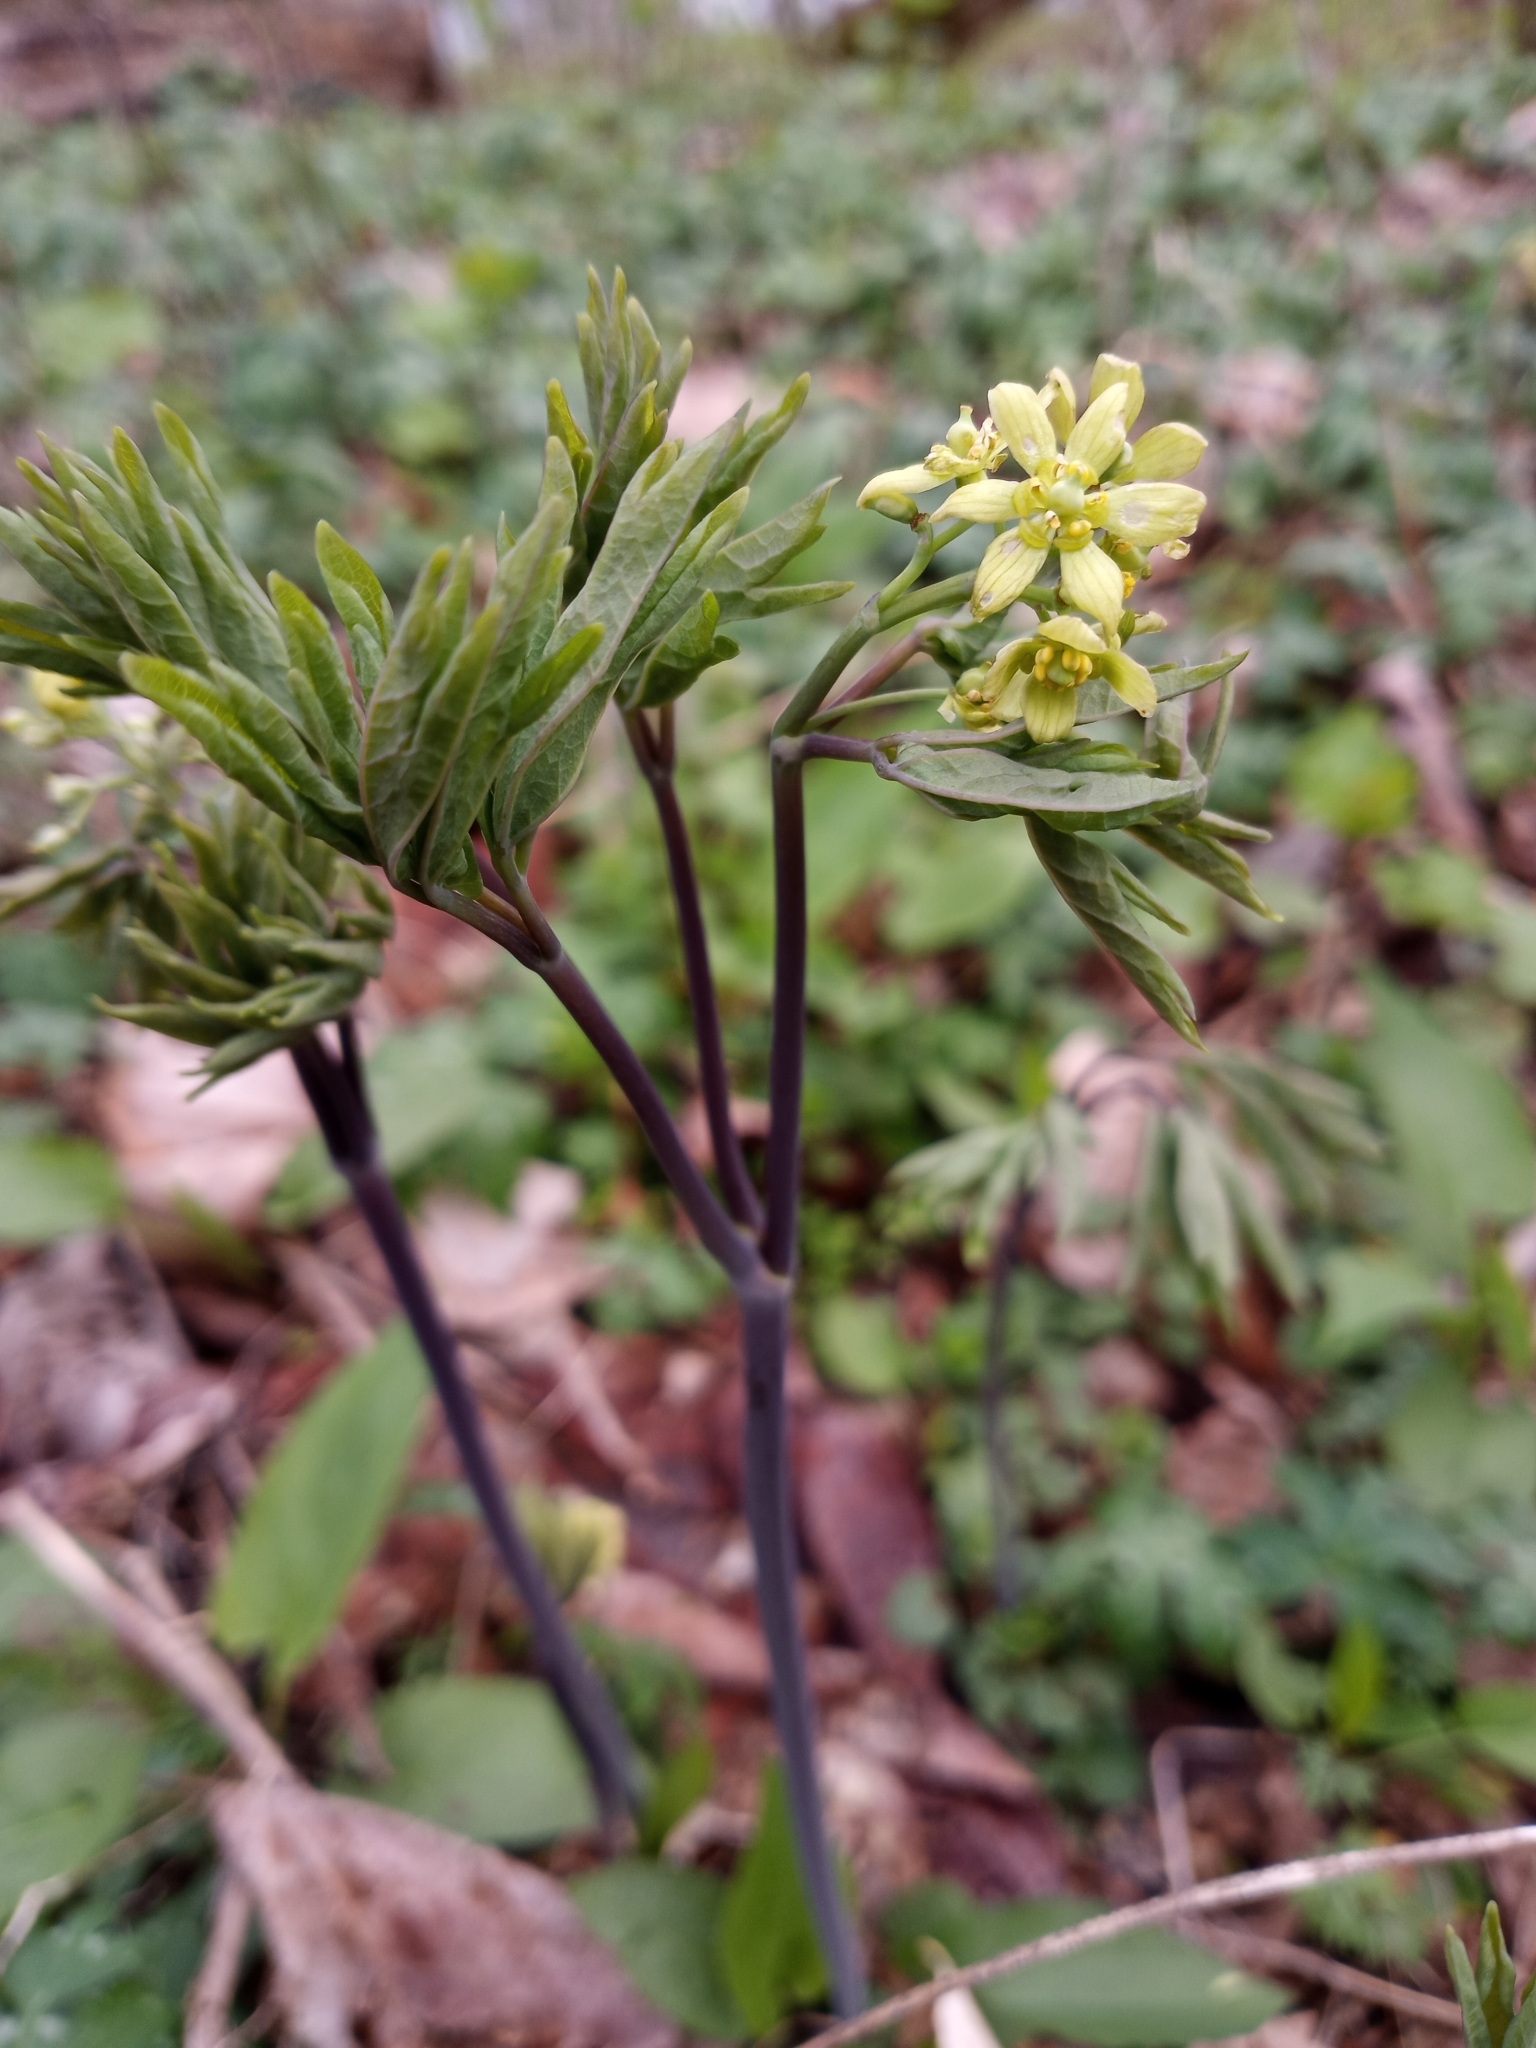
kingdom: Plantae
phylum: Tracheophyta
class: Magnoliopsida
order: Ranunculales
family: Berberidaceae
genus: Caulophyllum
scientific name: Caulophyllum thalictroides
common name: Blue cohosh
